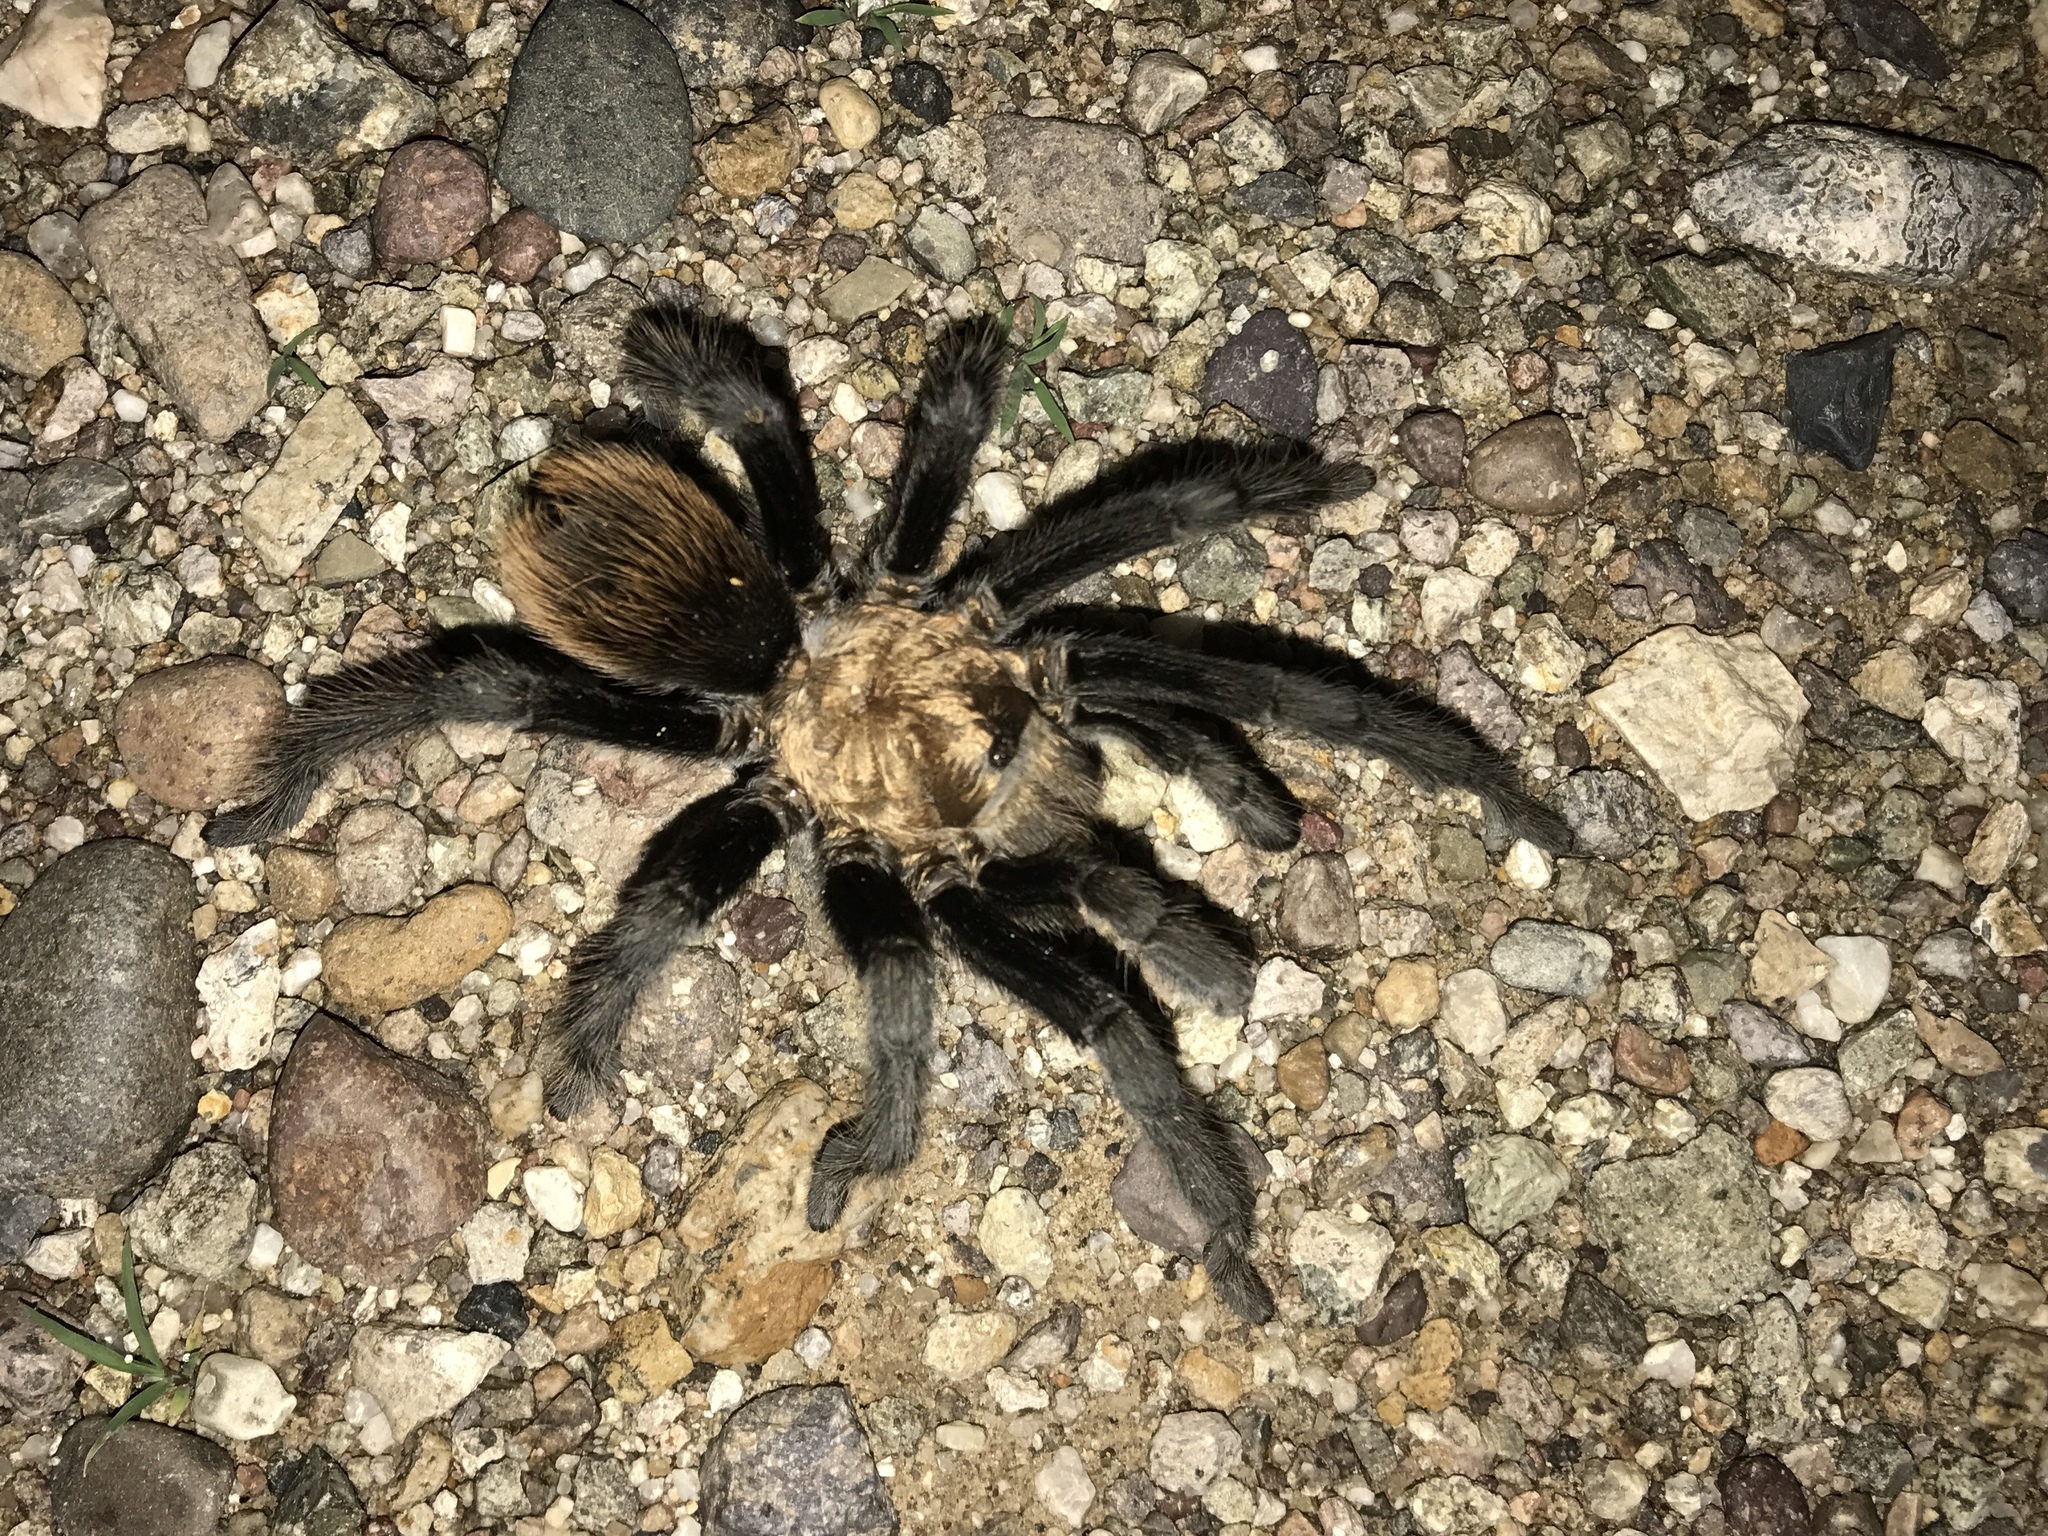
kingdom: Animalia
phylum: Arthropoda
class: Arachnida
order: Araneae
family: Theraphosidae
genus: Aphonopelma
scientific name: Aphonopelma chalcodes
